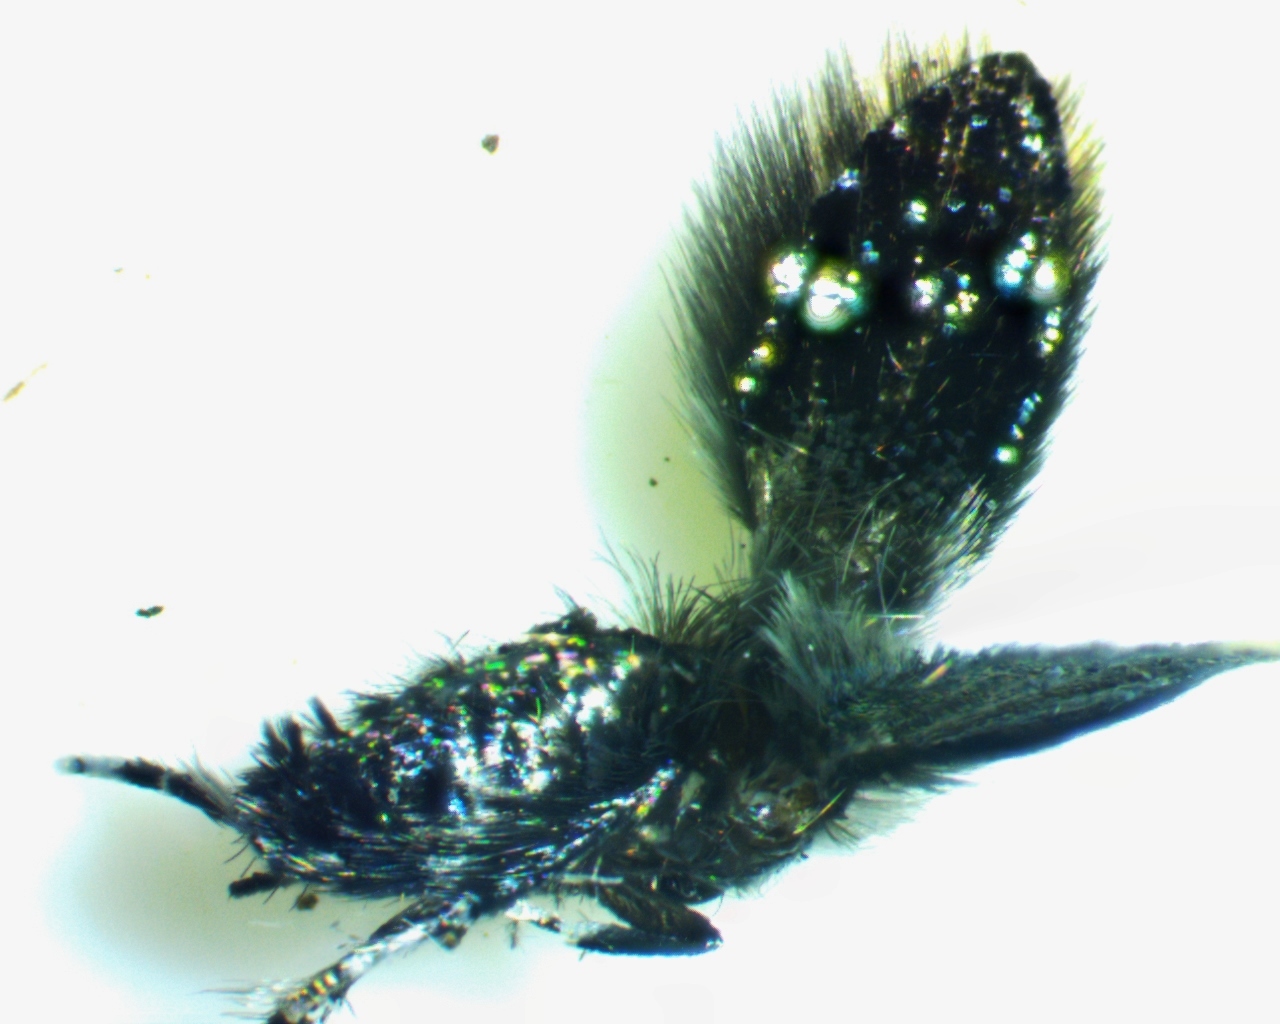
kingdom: Animalia
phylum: Arthropoda
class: Insecta
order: Diptera
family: Psychodidae
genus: Setomima
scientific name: Setomima
